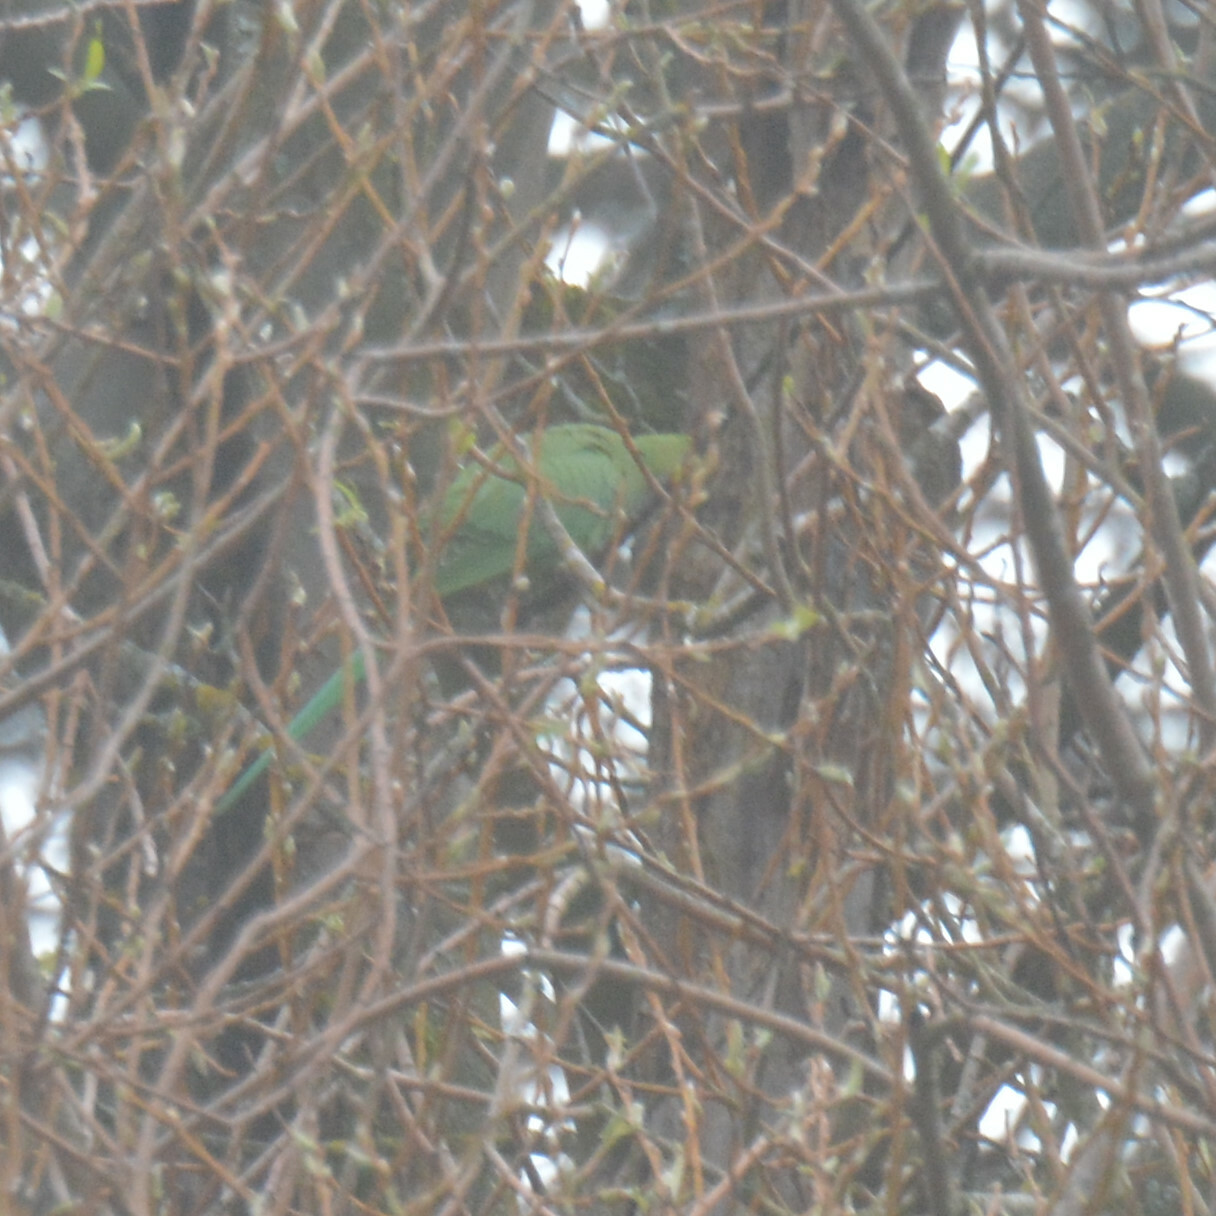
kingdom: Animalia
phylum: Chordata
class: Aves
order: Psittaciformes
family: Psittacidae
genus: Psittacula
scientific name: Psittacula krameri
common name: Rose-ringed parakeet
